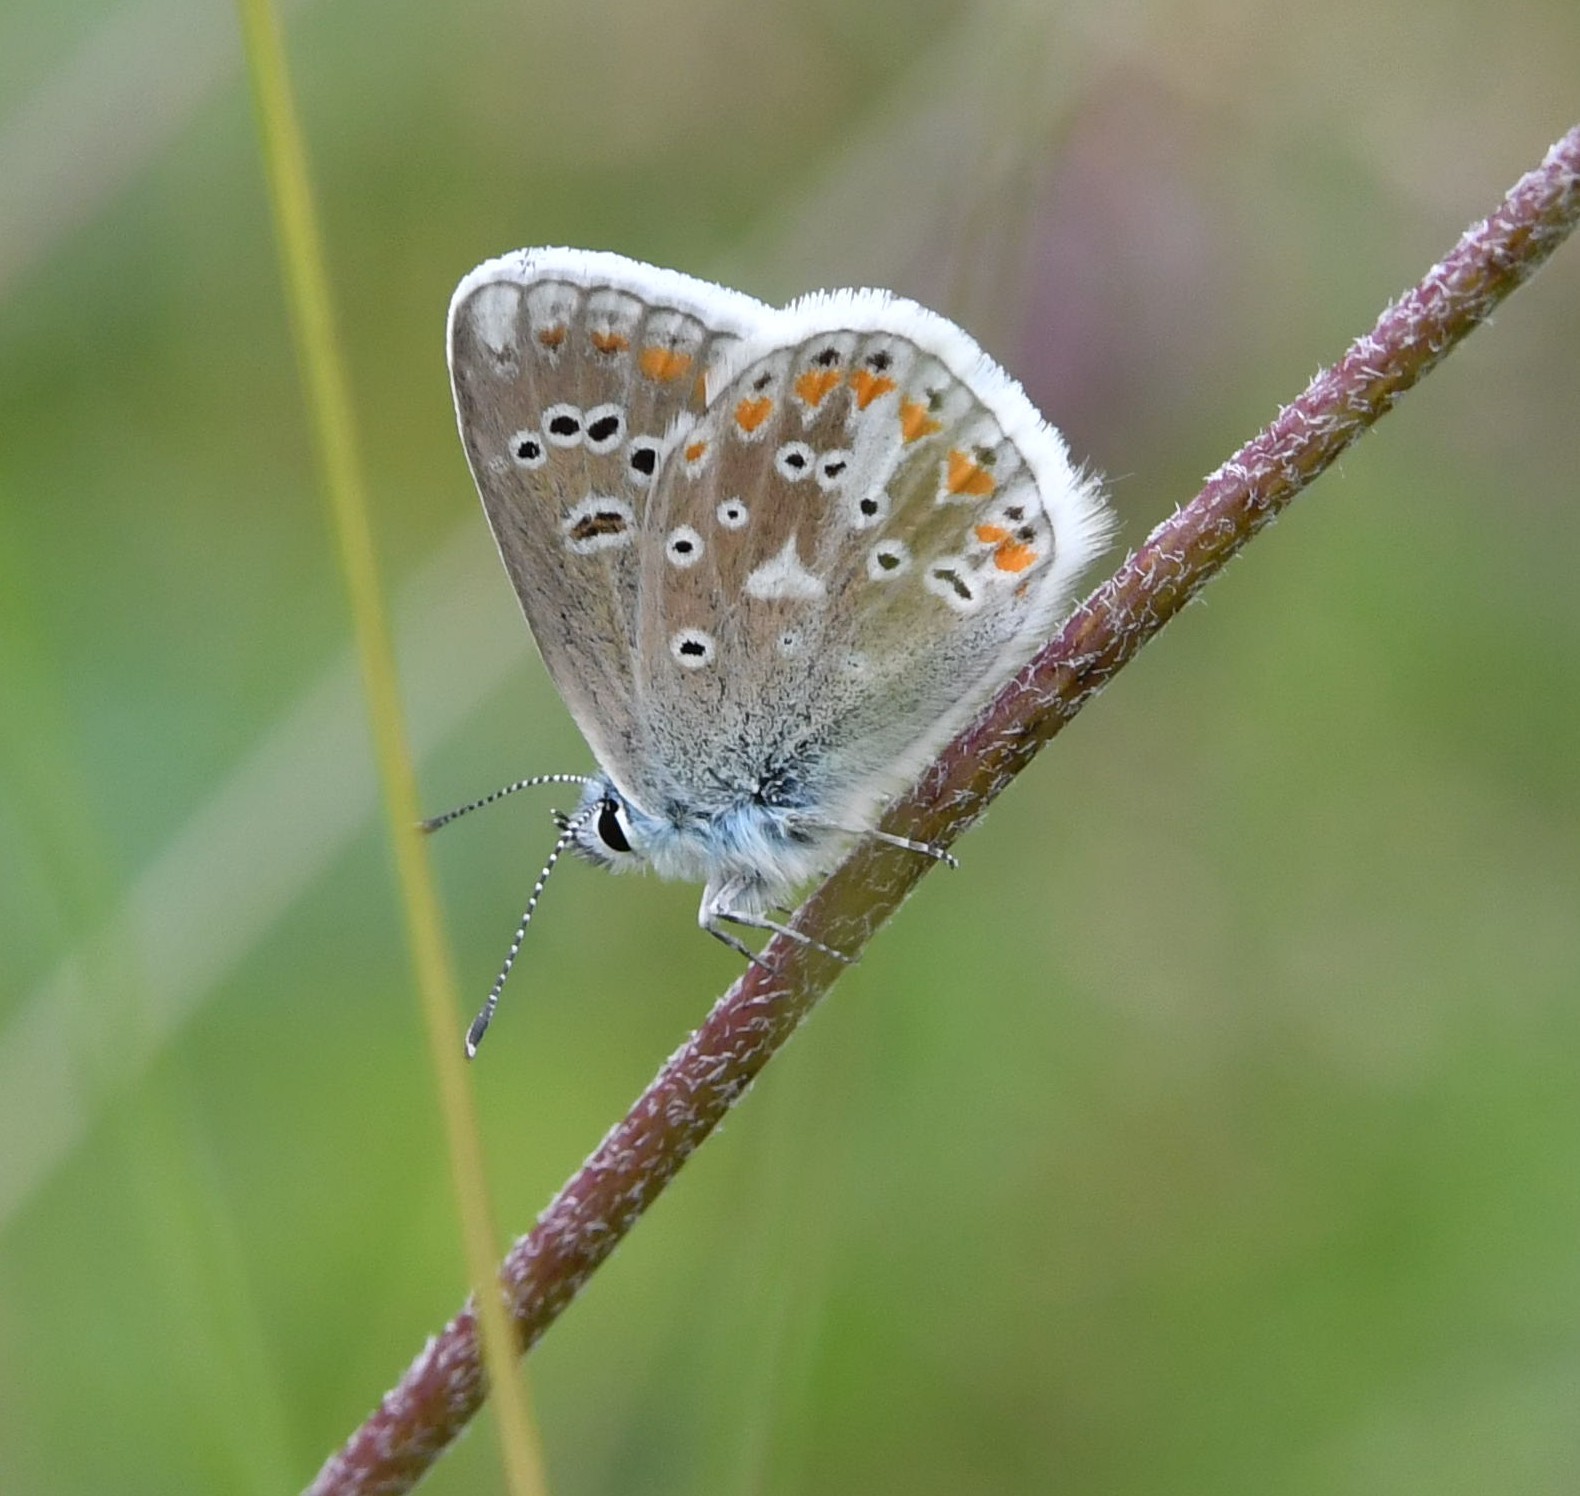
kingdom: Animalia
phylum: Arthropoda
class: Insecta
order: Lepidoptera
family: Lycaenidae
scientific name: Lycaenidae
